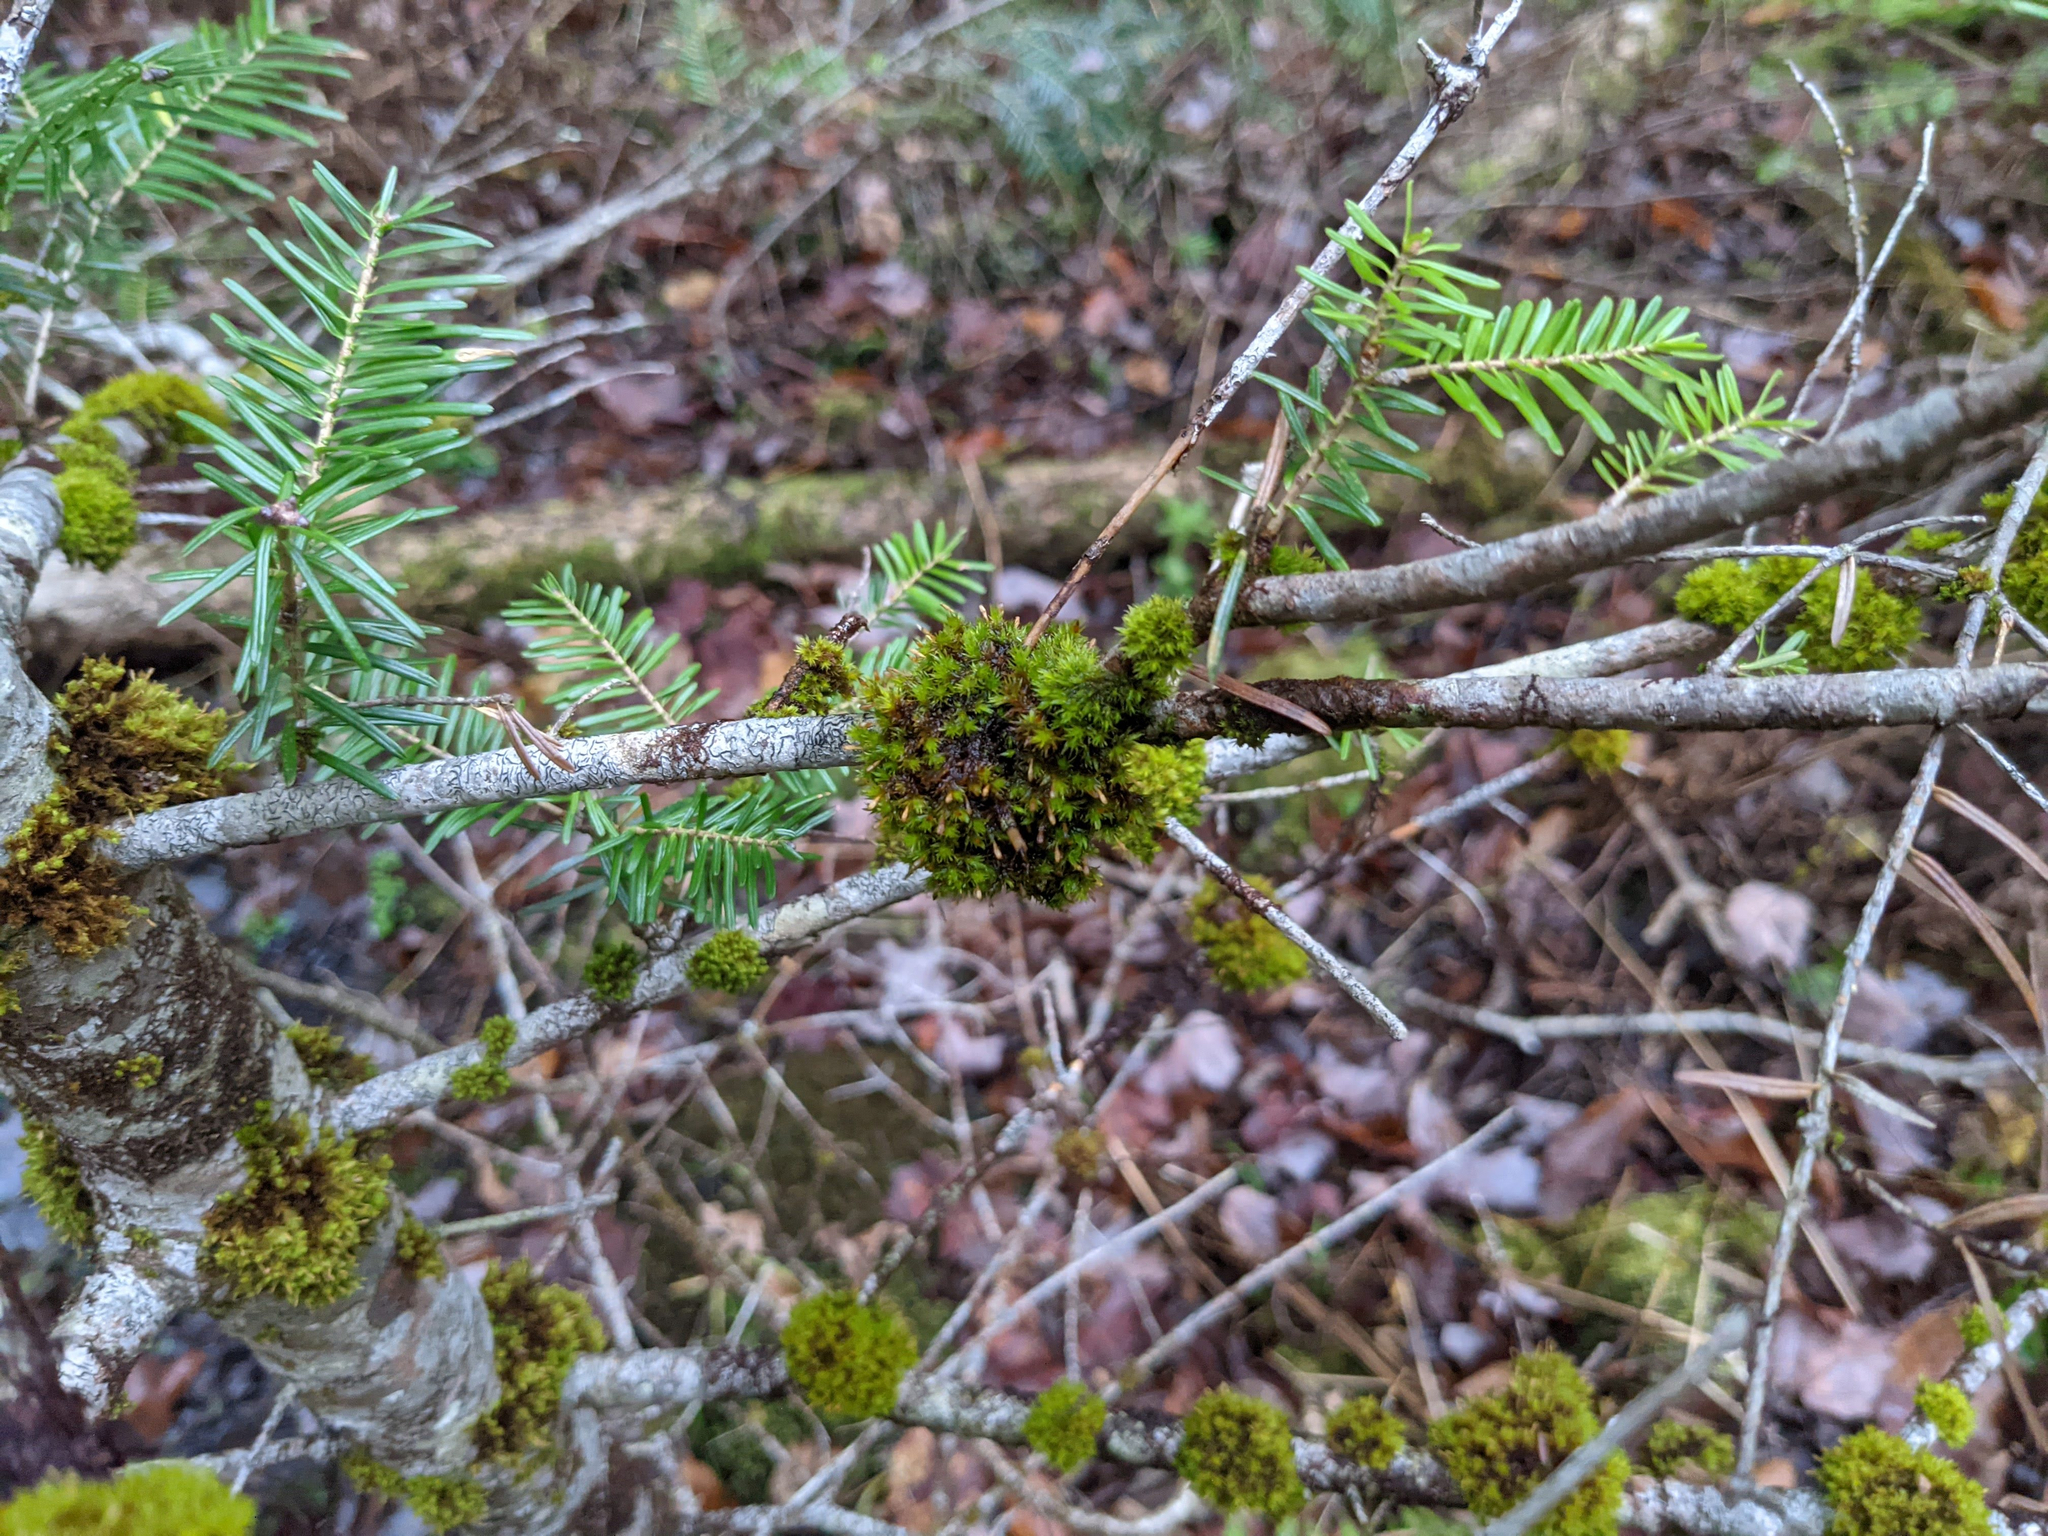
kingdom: Plantae
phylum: Bryophyta
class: Bryopsida
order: Orthotrichales
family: Orthotrichaceae
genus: Ulota
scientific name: Ulota crispa
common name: Crisped pincushion moss
